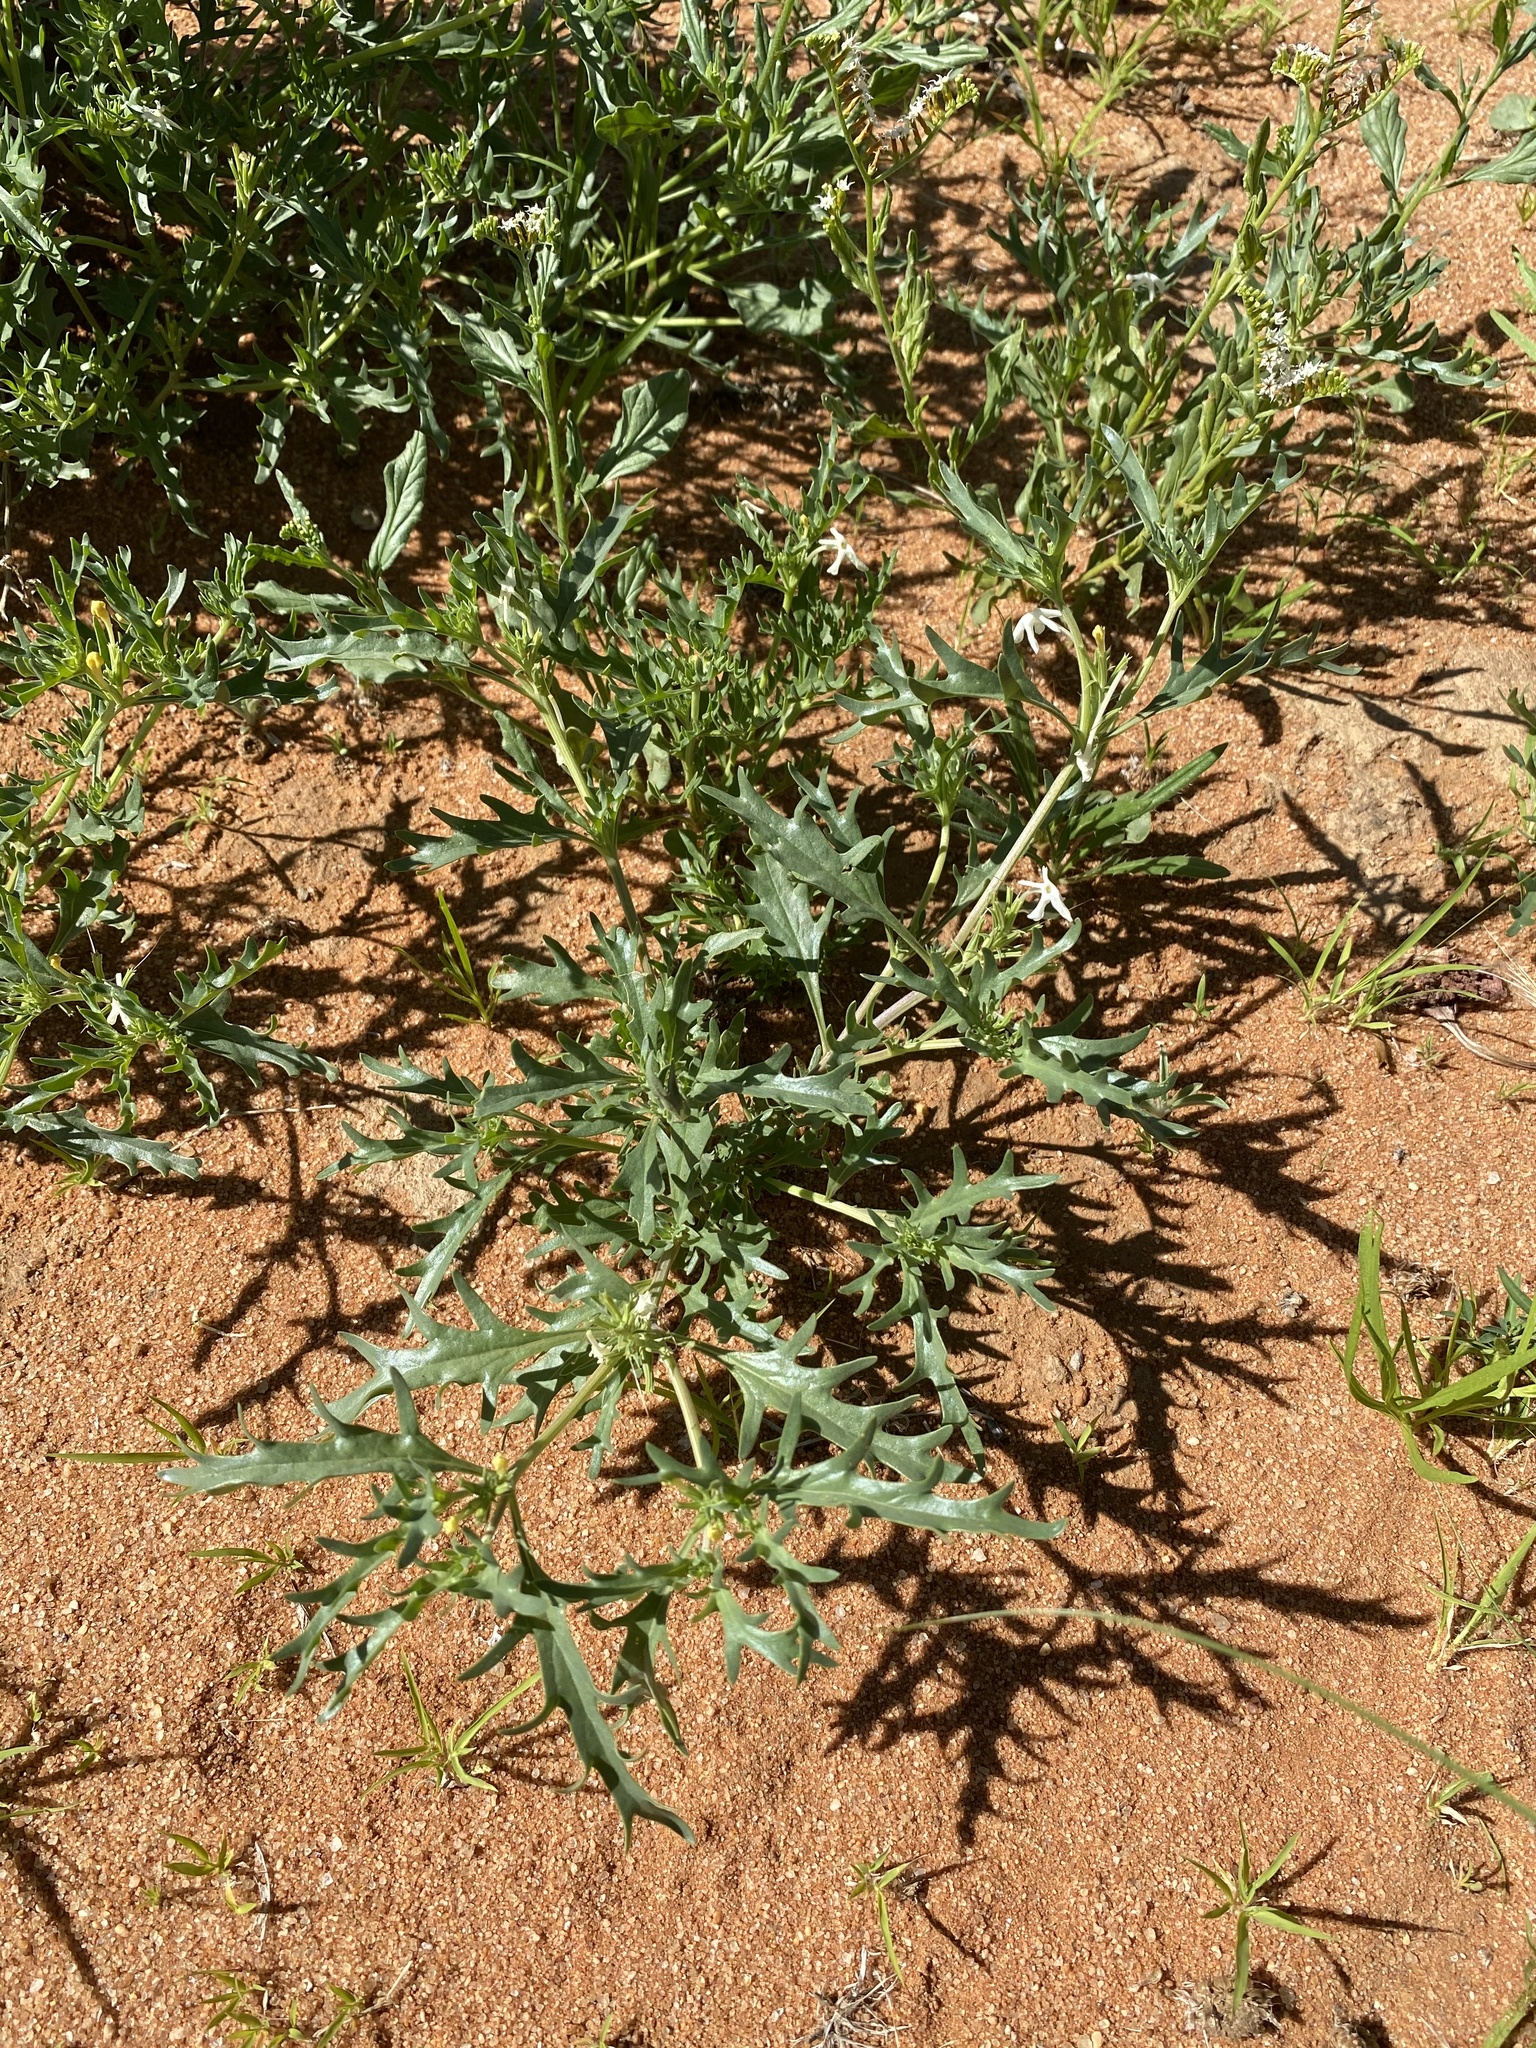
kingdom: Plantae
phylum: Tracheophyta
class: Magnoliopsida
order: Lamiales
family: Verbenaceae
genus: Chascanum
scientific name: Chascanum pinnatifidum
